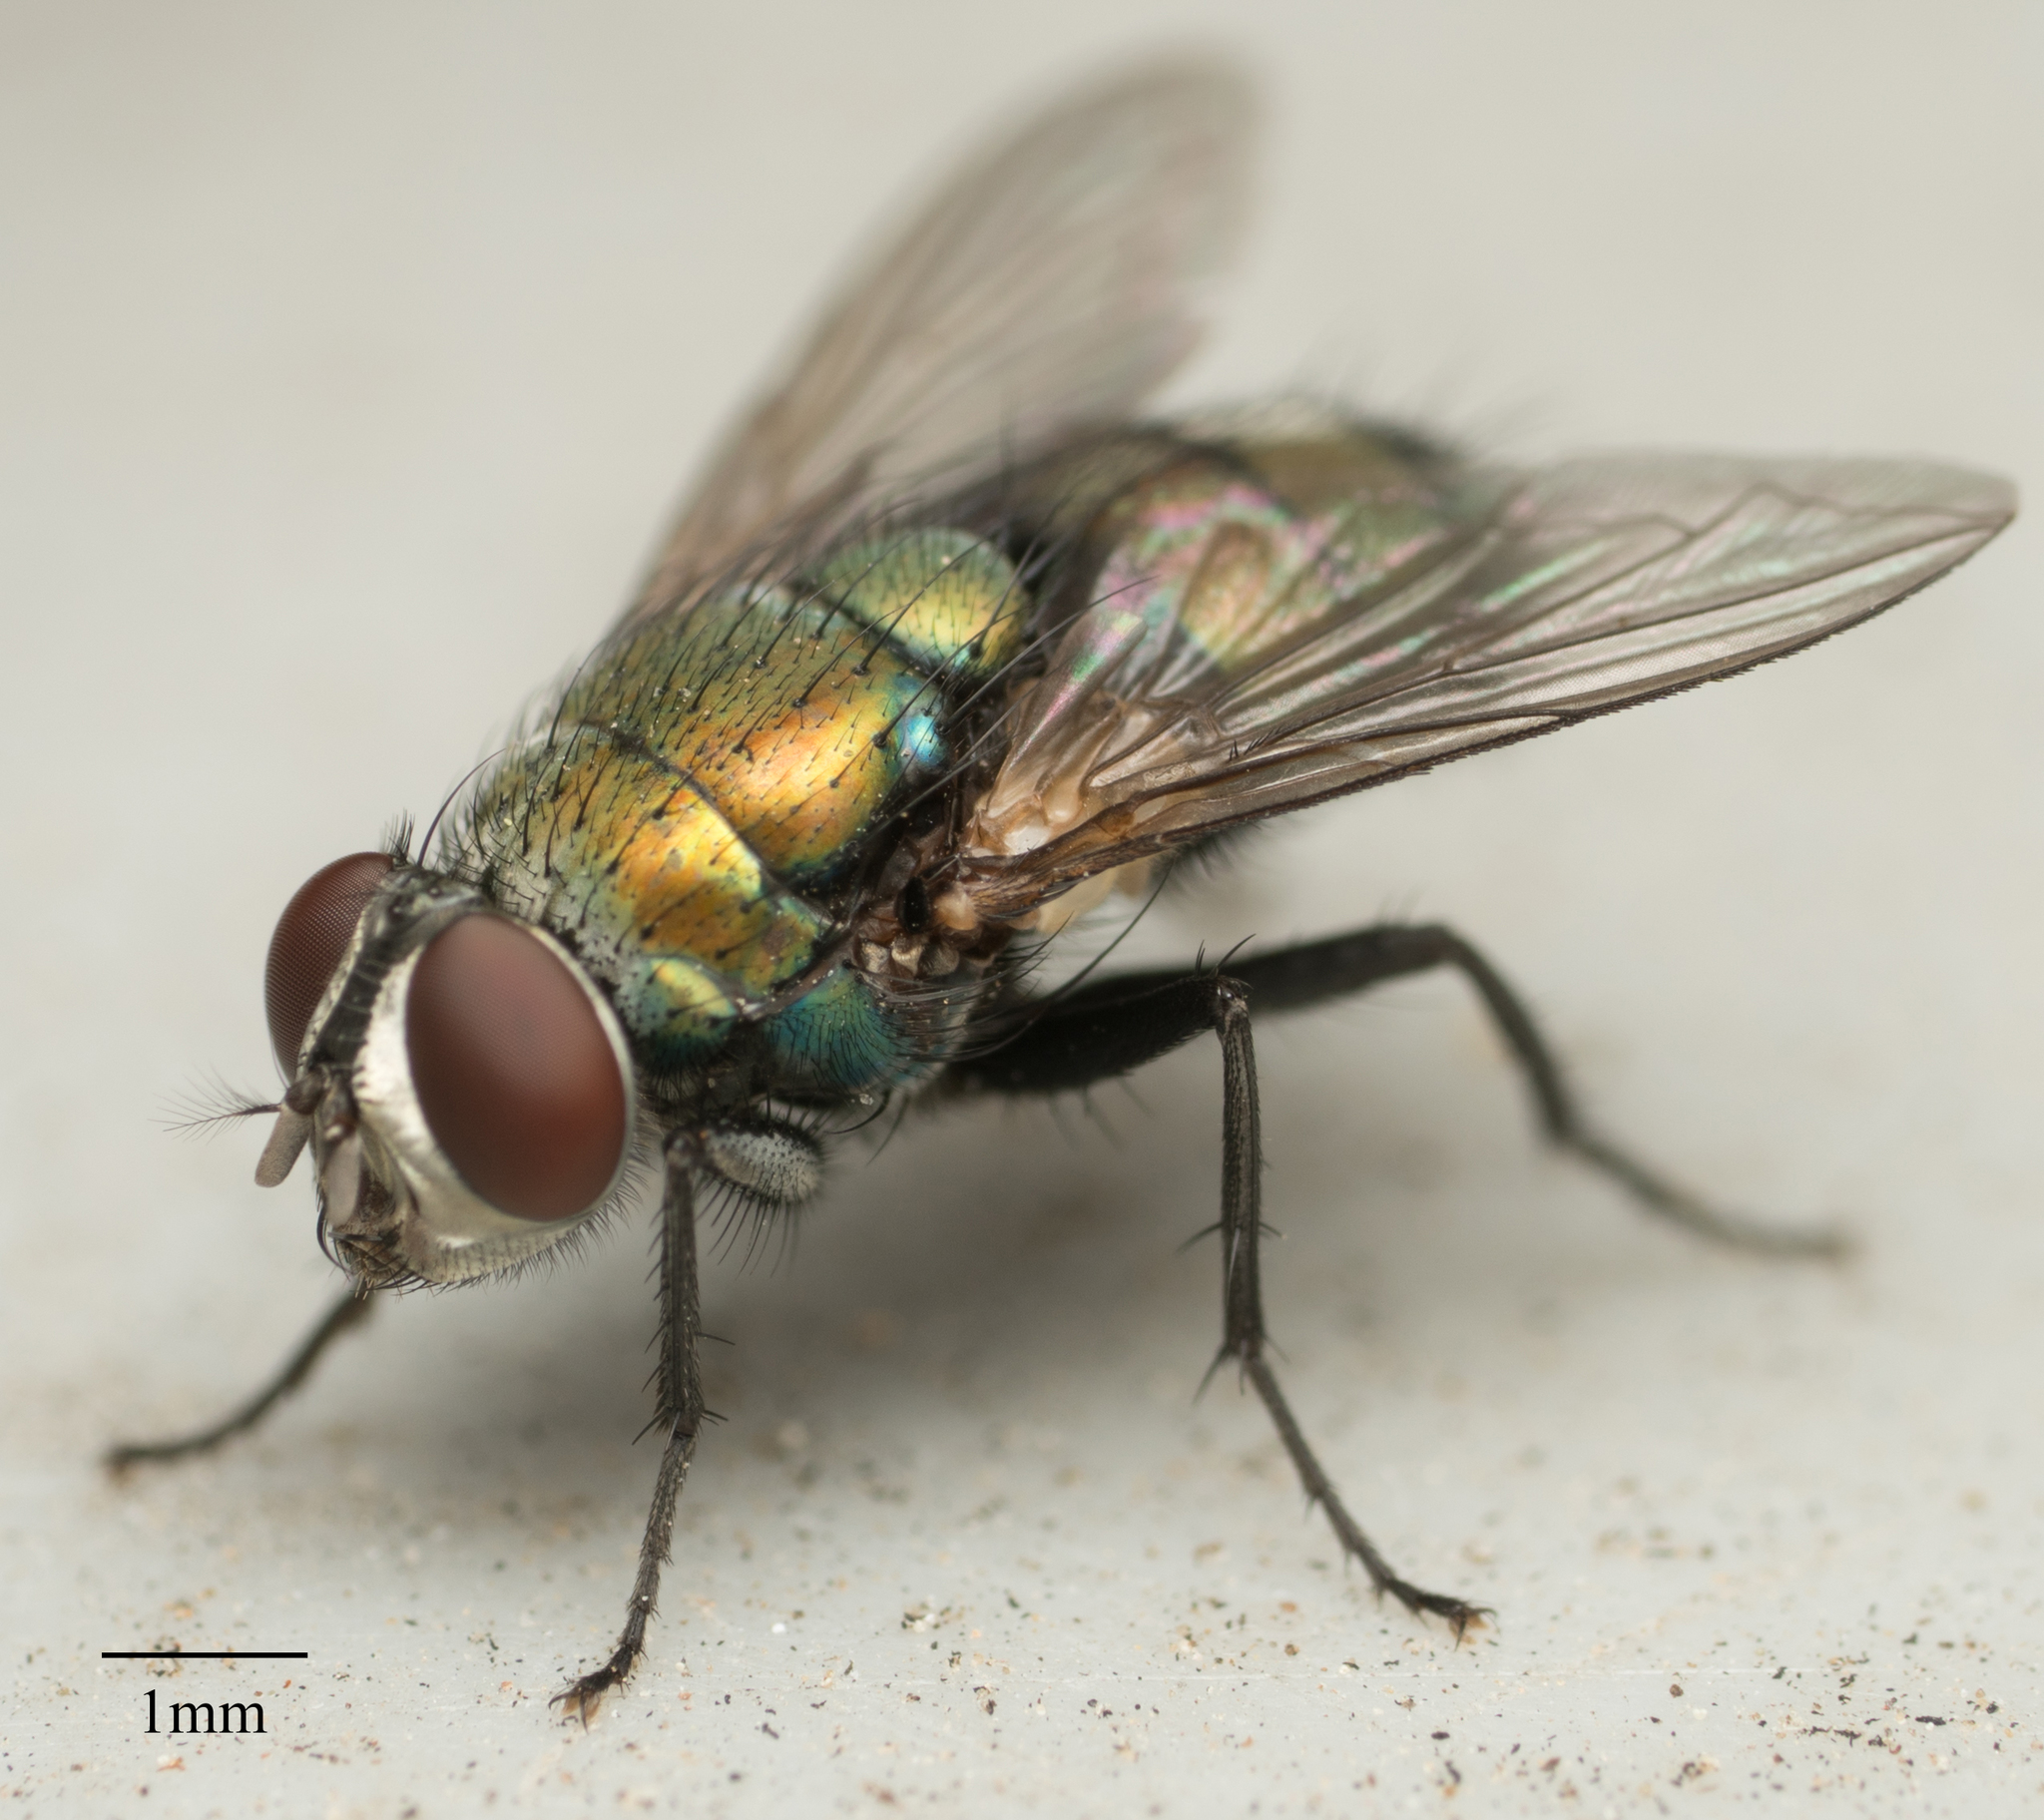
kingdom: Animalia
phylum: Arthropoda
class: Insecta
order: Diptera
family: Calliphoridae
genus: Lucilia
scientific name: Lucilia cuprina
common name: Sheep blow fly
